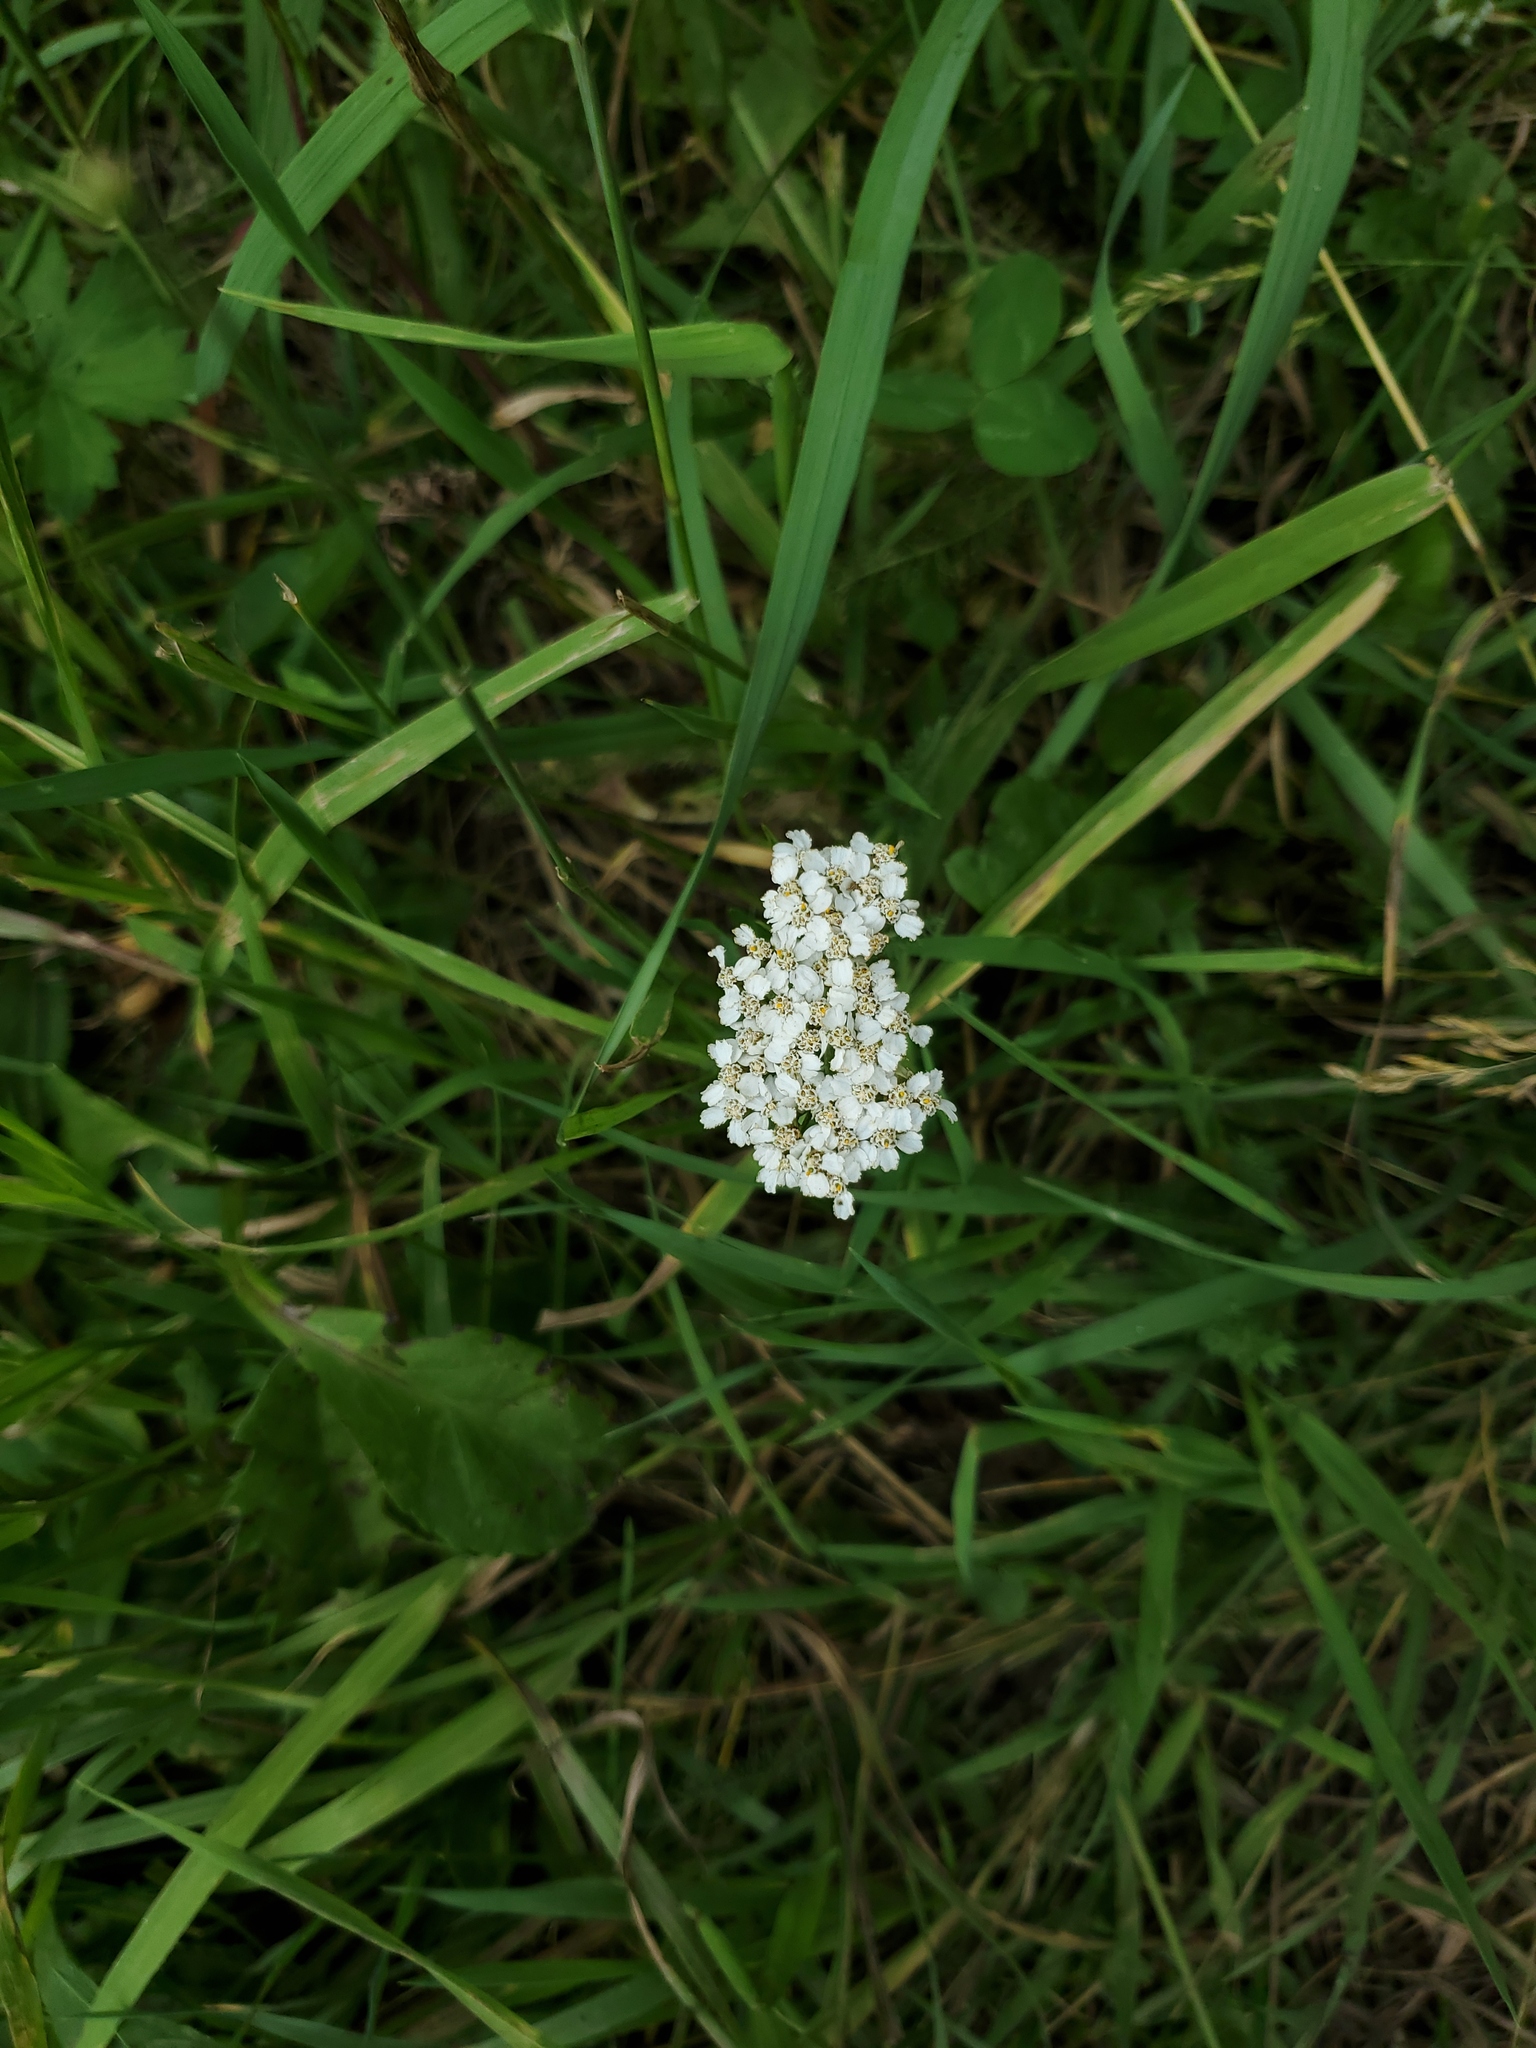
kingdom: Plantae
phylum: Tracheophyta
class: Magnoliopsida
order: Asterales
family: Asteraceae
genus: Achillea
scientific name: Achillea millefolium
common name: Yarrow
